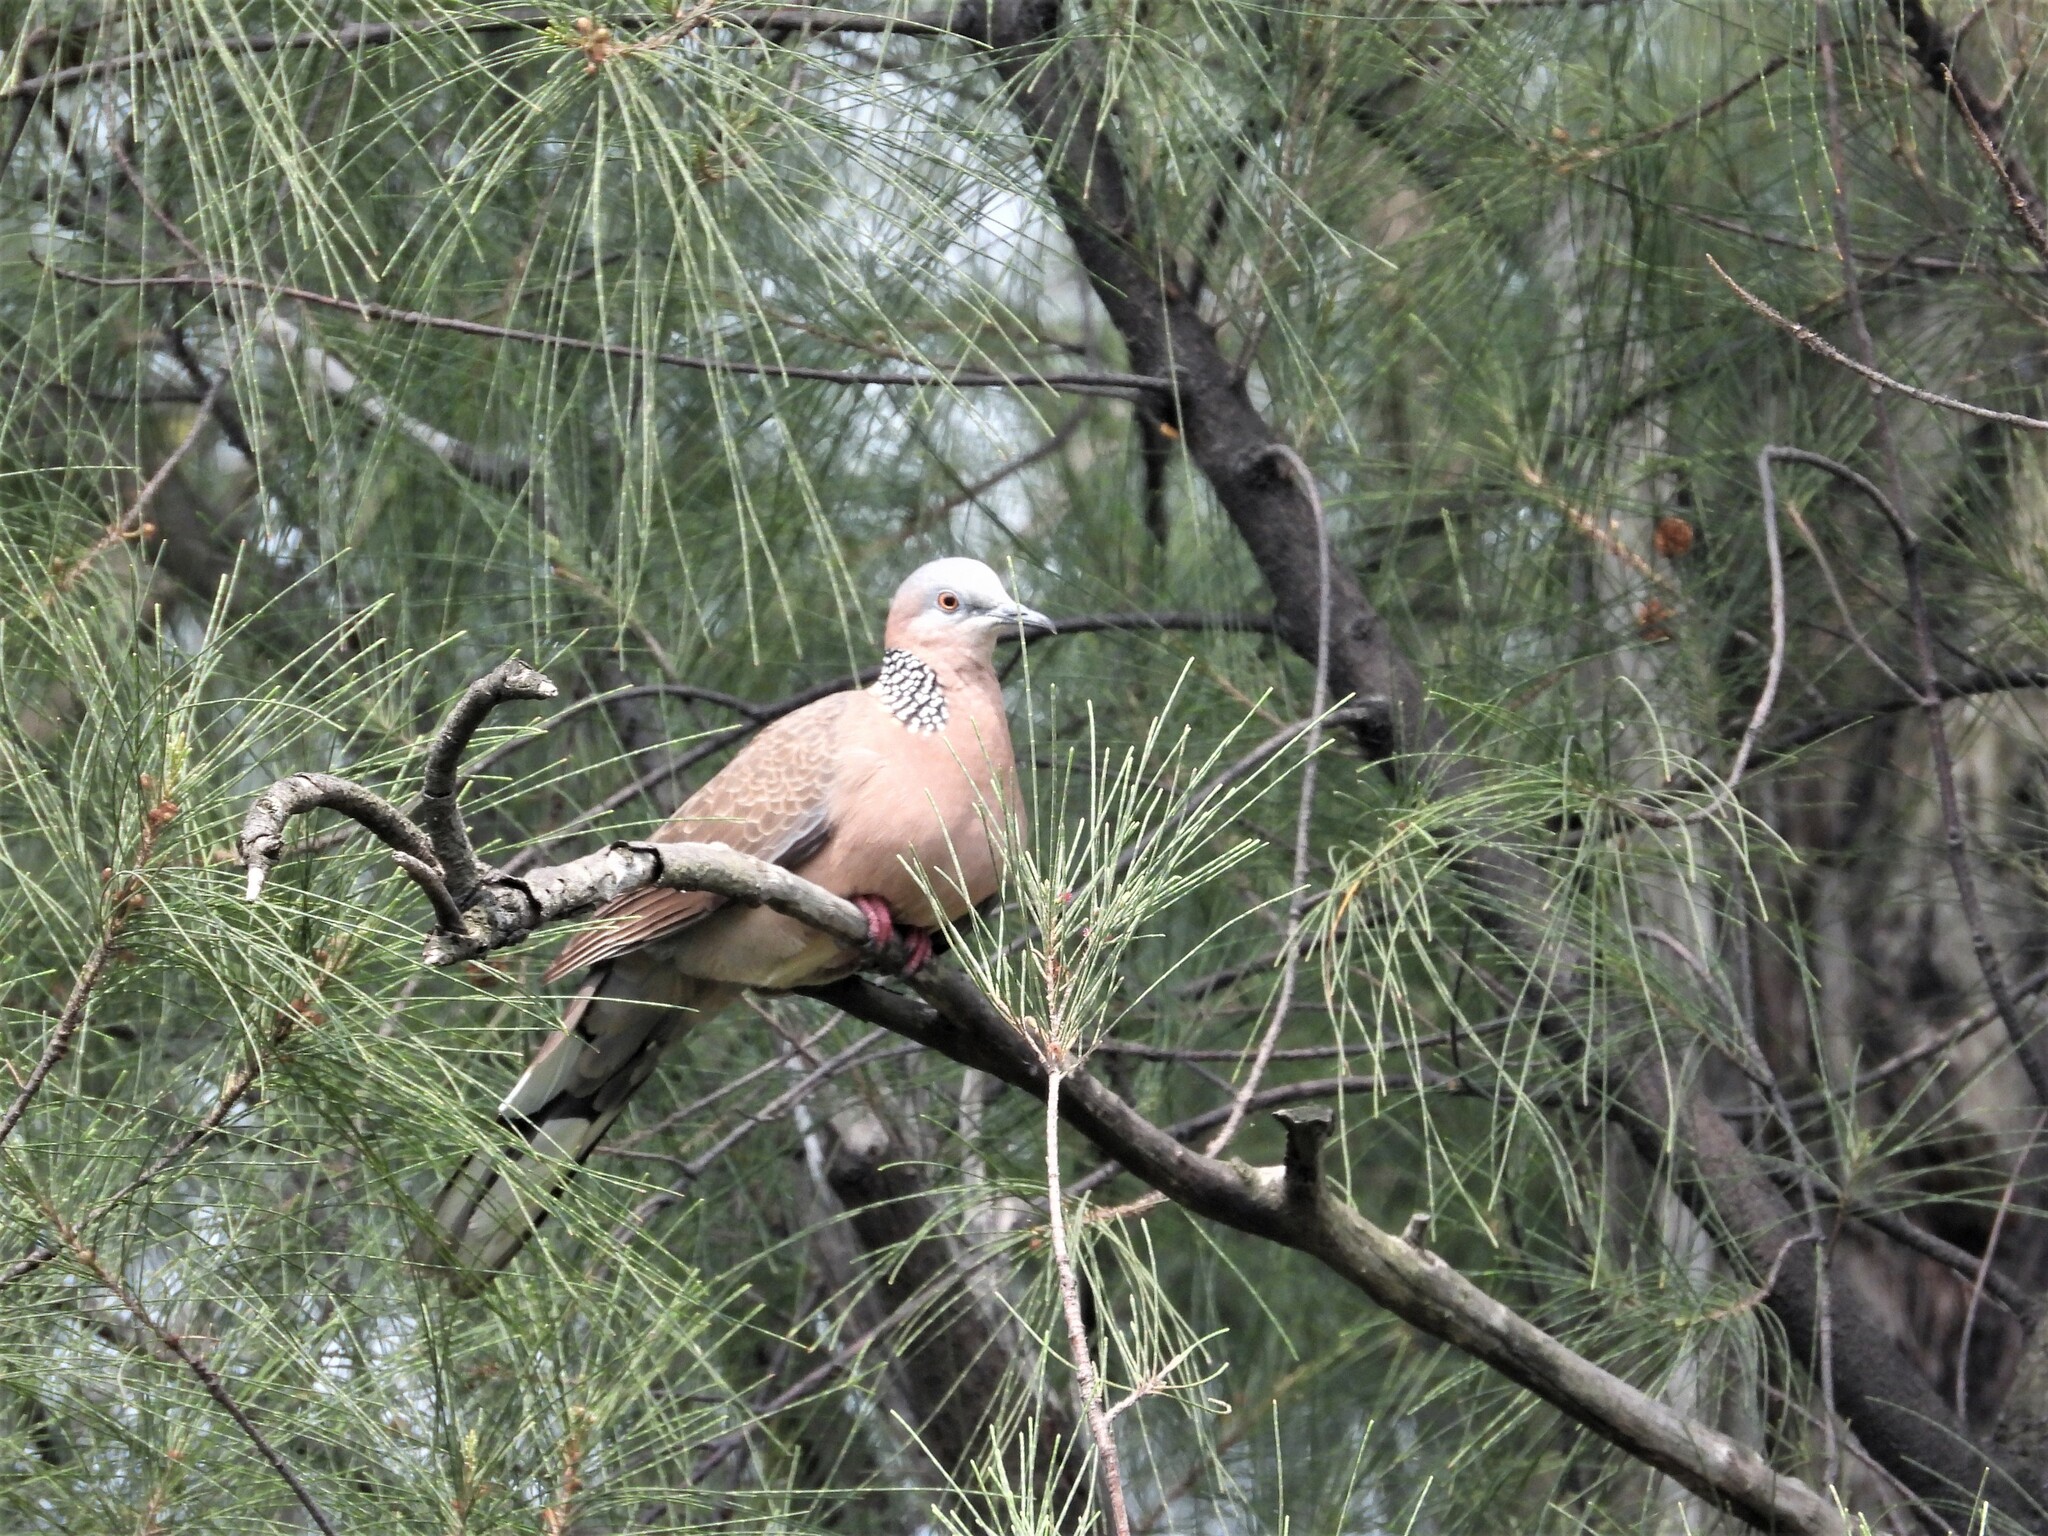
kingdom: Animalia
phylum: Chordata
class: Aves
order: Columbiformes
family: Columbidae
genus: Spilopelia
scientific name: Spilopelia chinensis
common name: Spotted dove
